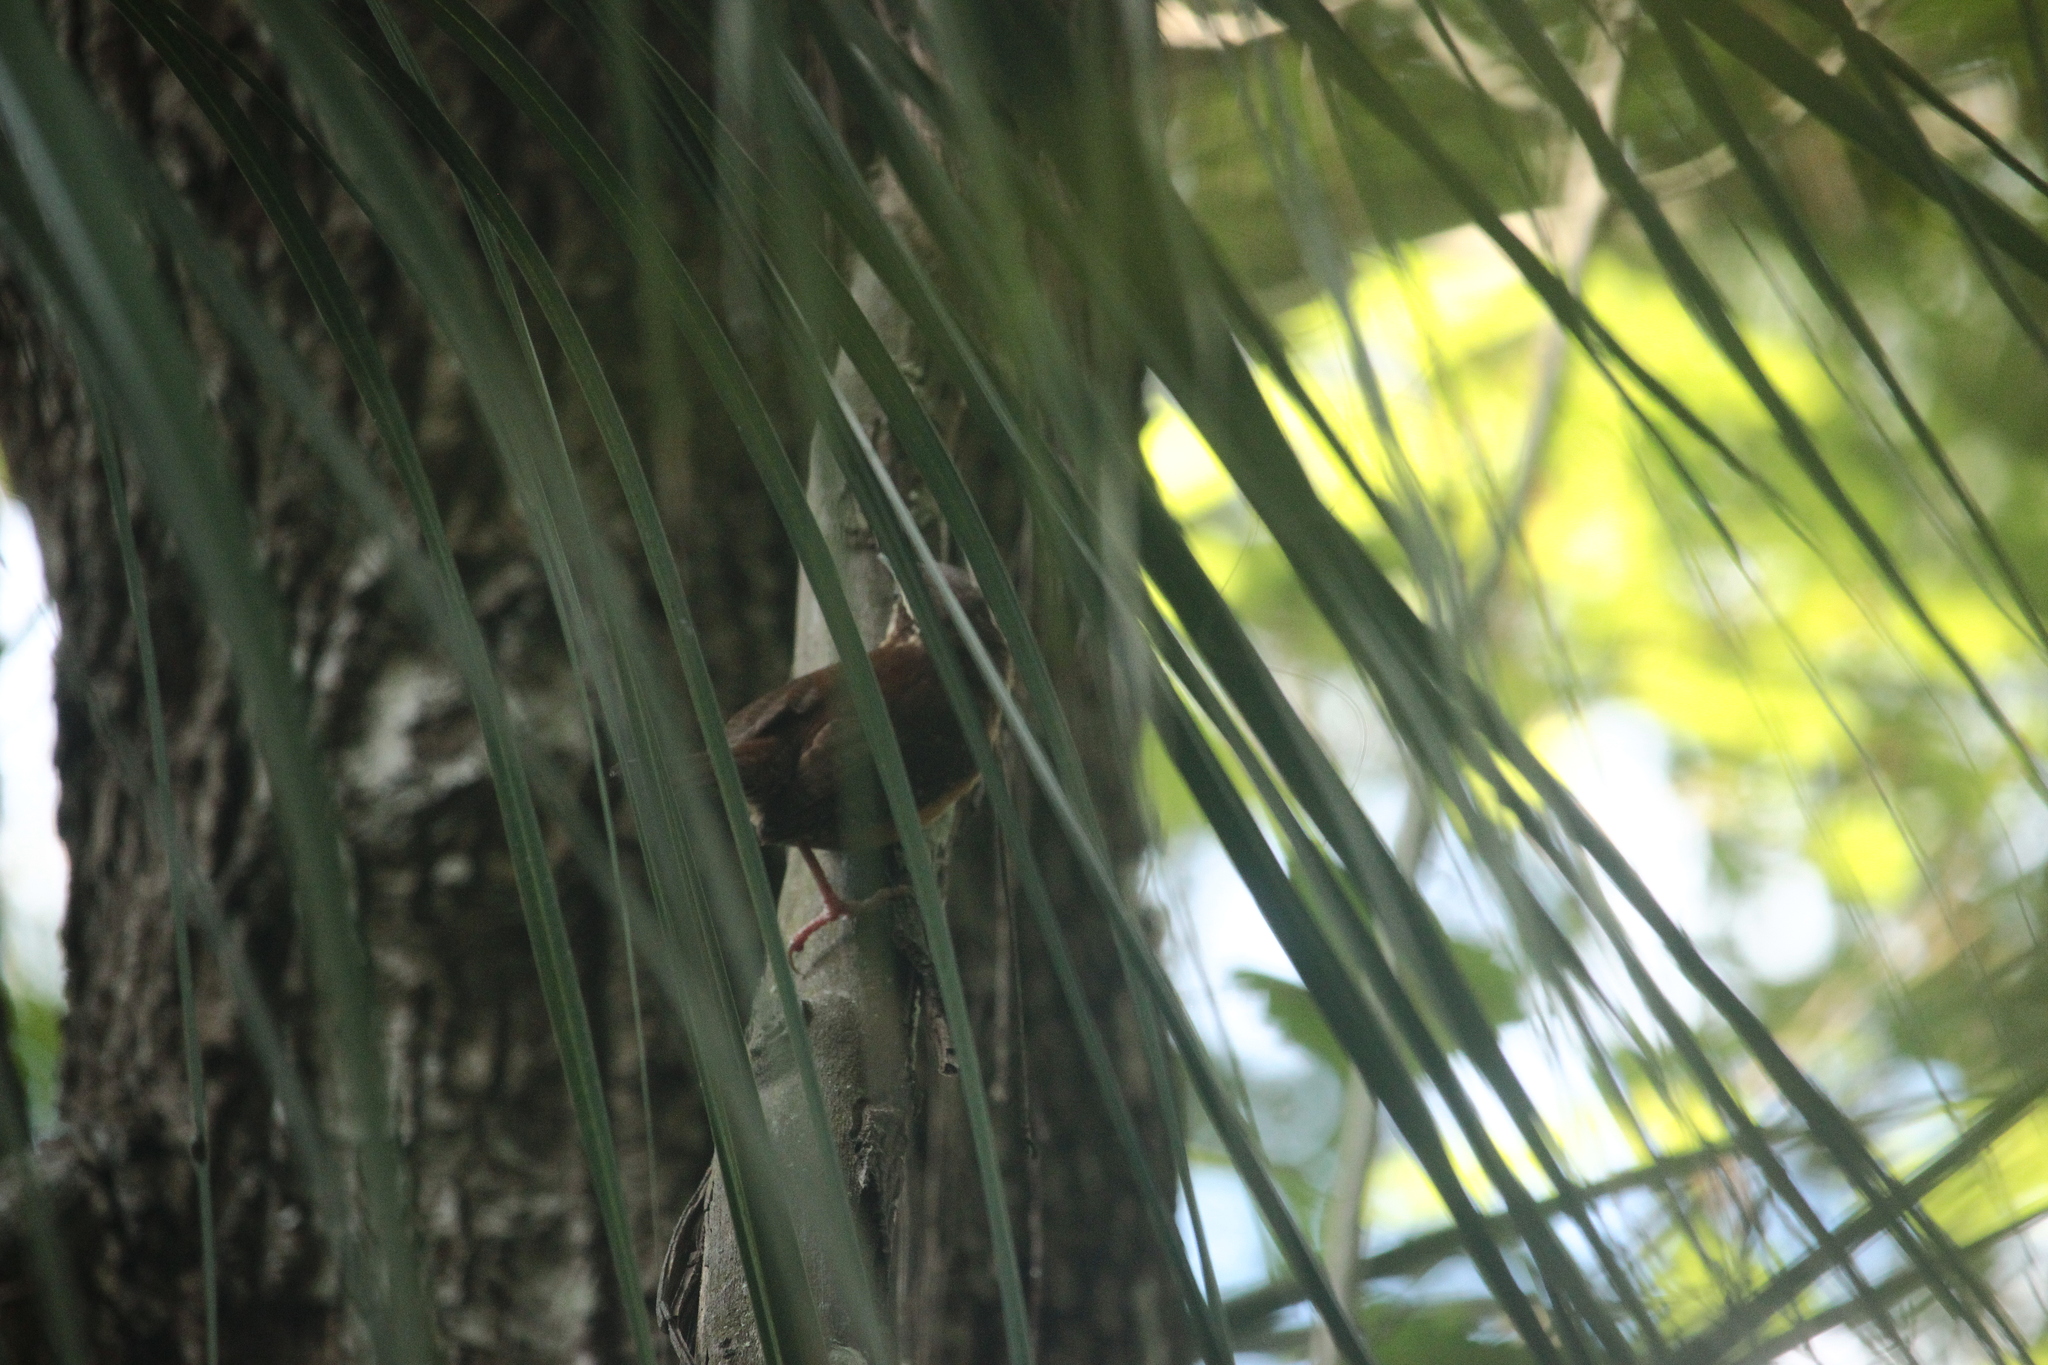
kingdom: Animalia
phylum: Chordata
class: Aves
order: Passeriformes
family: Troglodytidae
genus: Thryothorus
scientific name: Thryothorus ludovicianus
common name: Carolina wren
